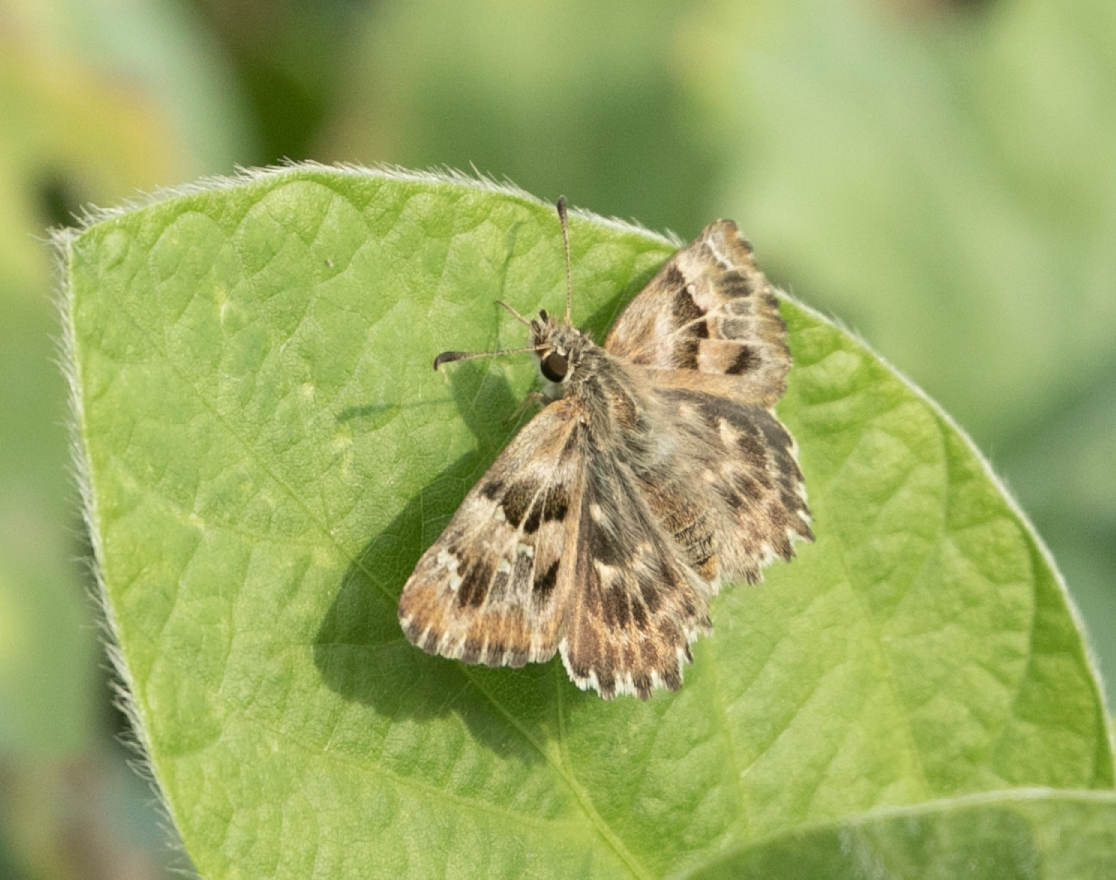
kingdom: Animalia
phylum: Arthropoda
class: Insecta
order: Lepidoptera
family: Hesperiidae
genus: Carcharodus
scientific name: Carcharodus alceae
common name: Mallow skipper
